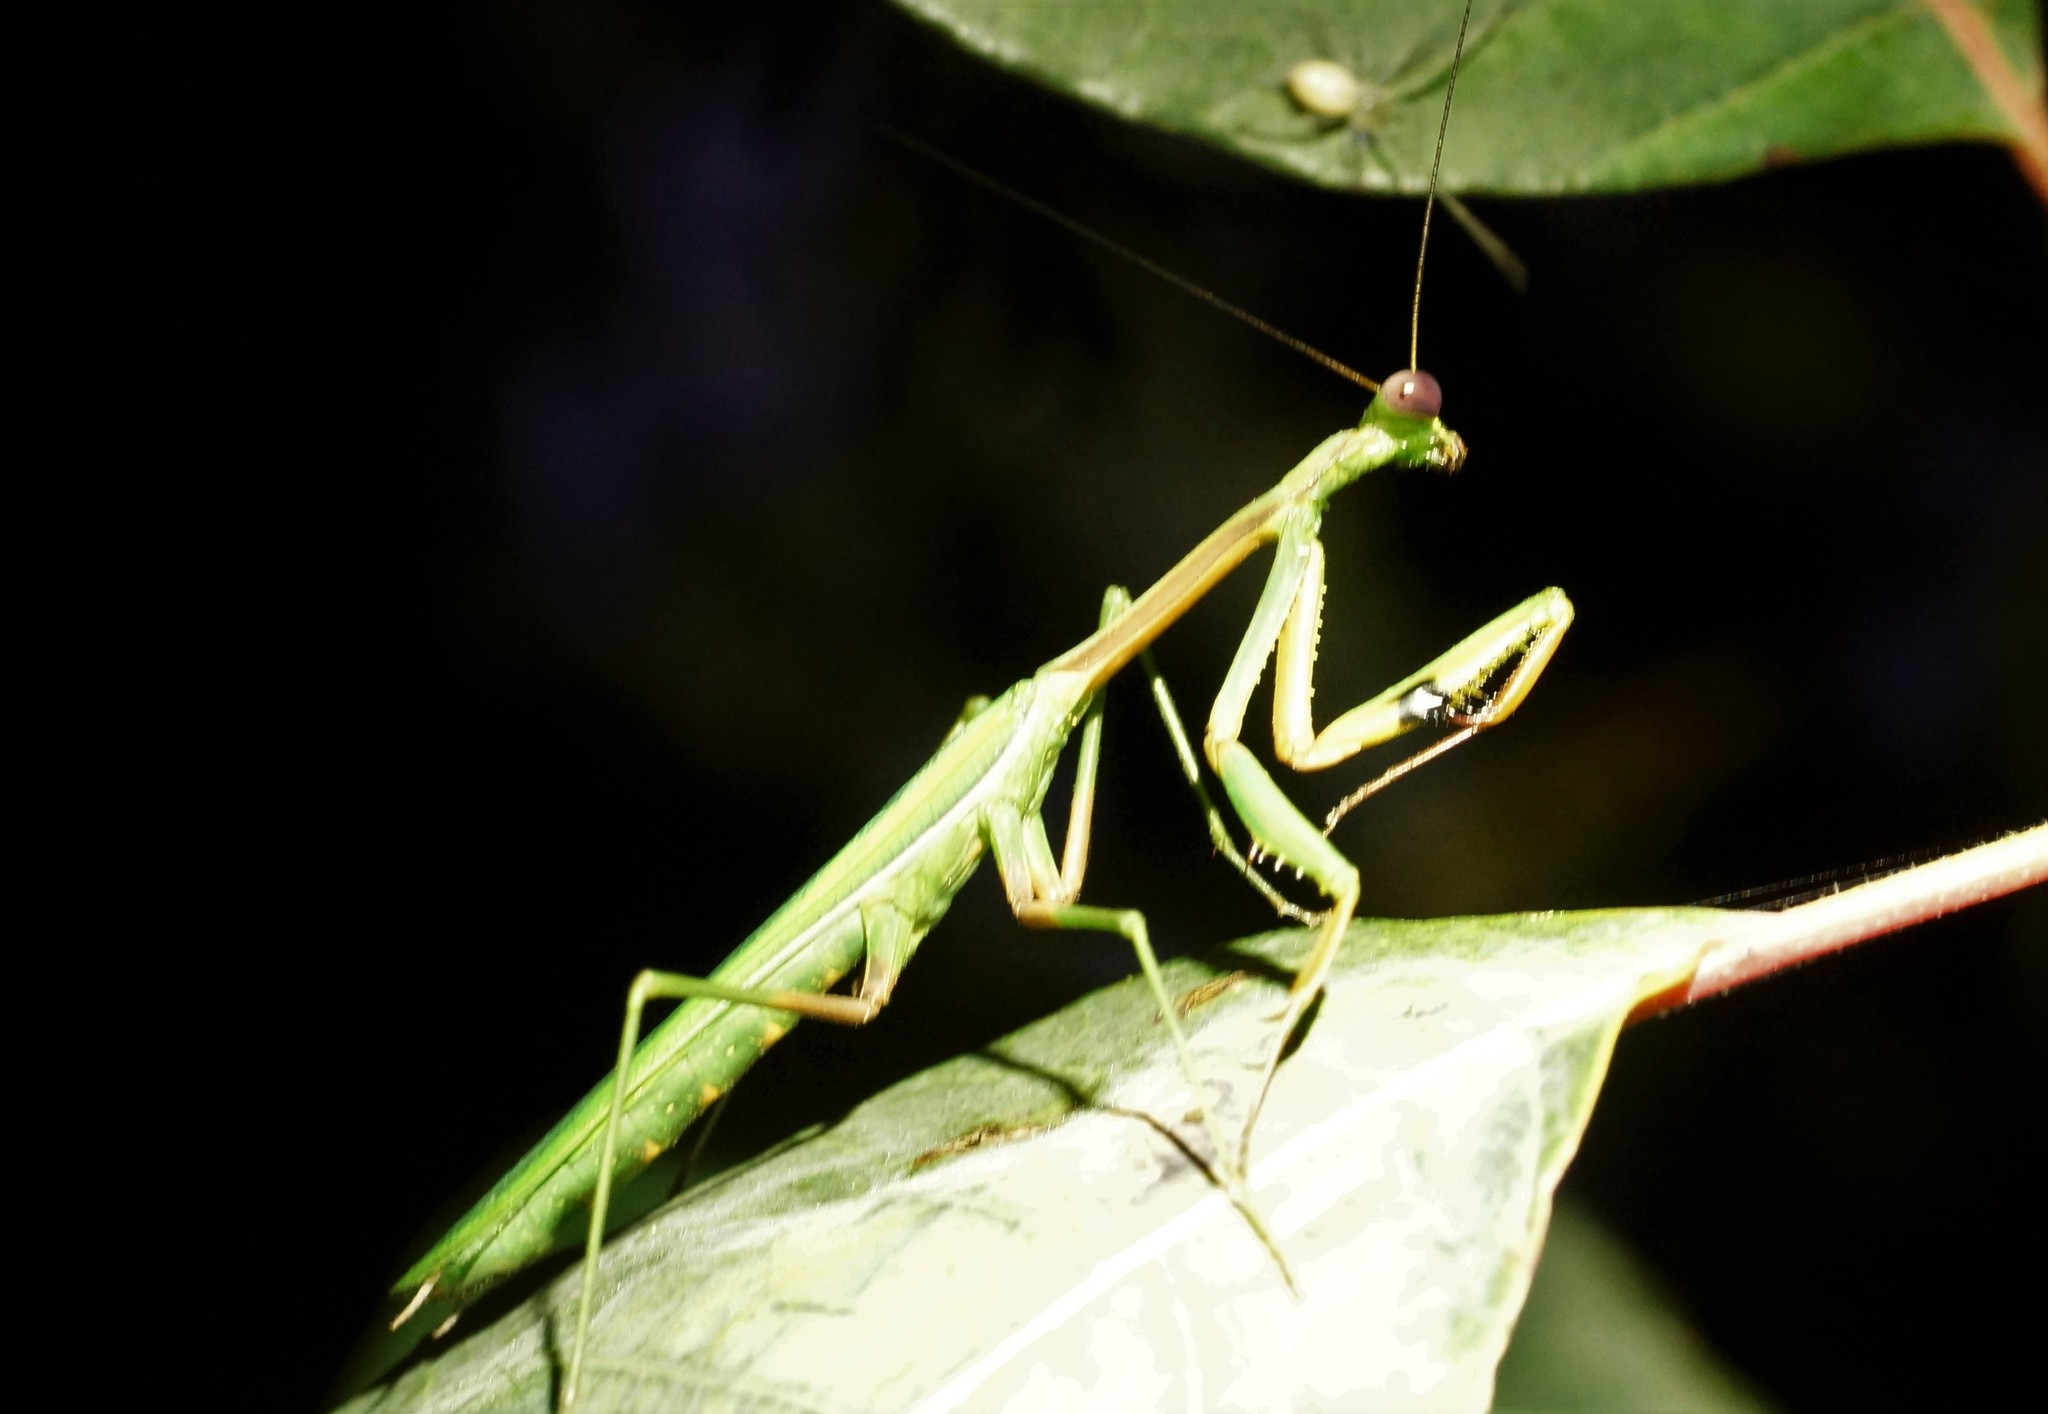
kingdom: Animalia
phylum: Arthropoda
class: Insecta
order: Mantodea
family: Mantidae
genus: Pseudomantis
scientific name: Pseudomantis albofimbriata
